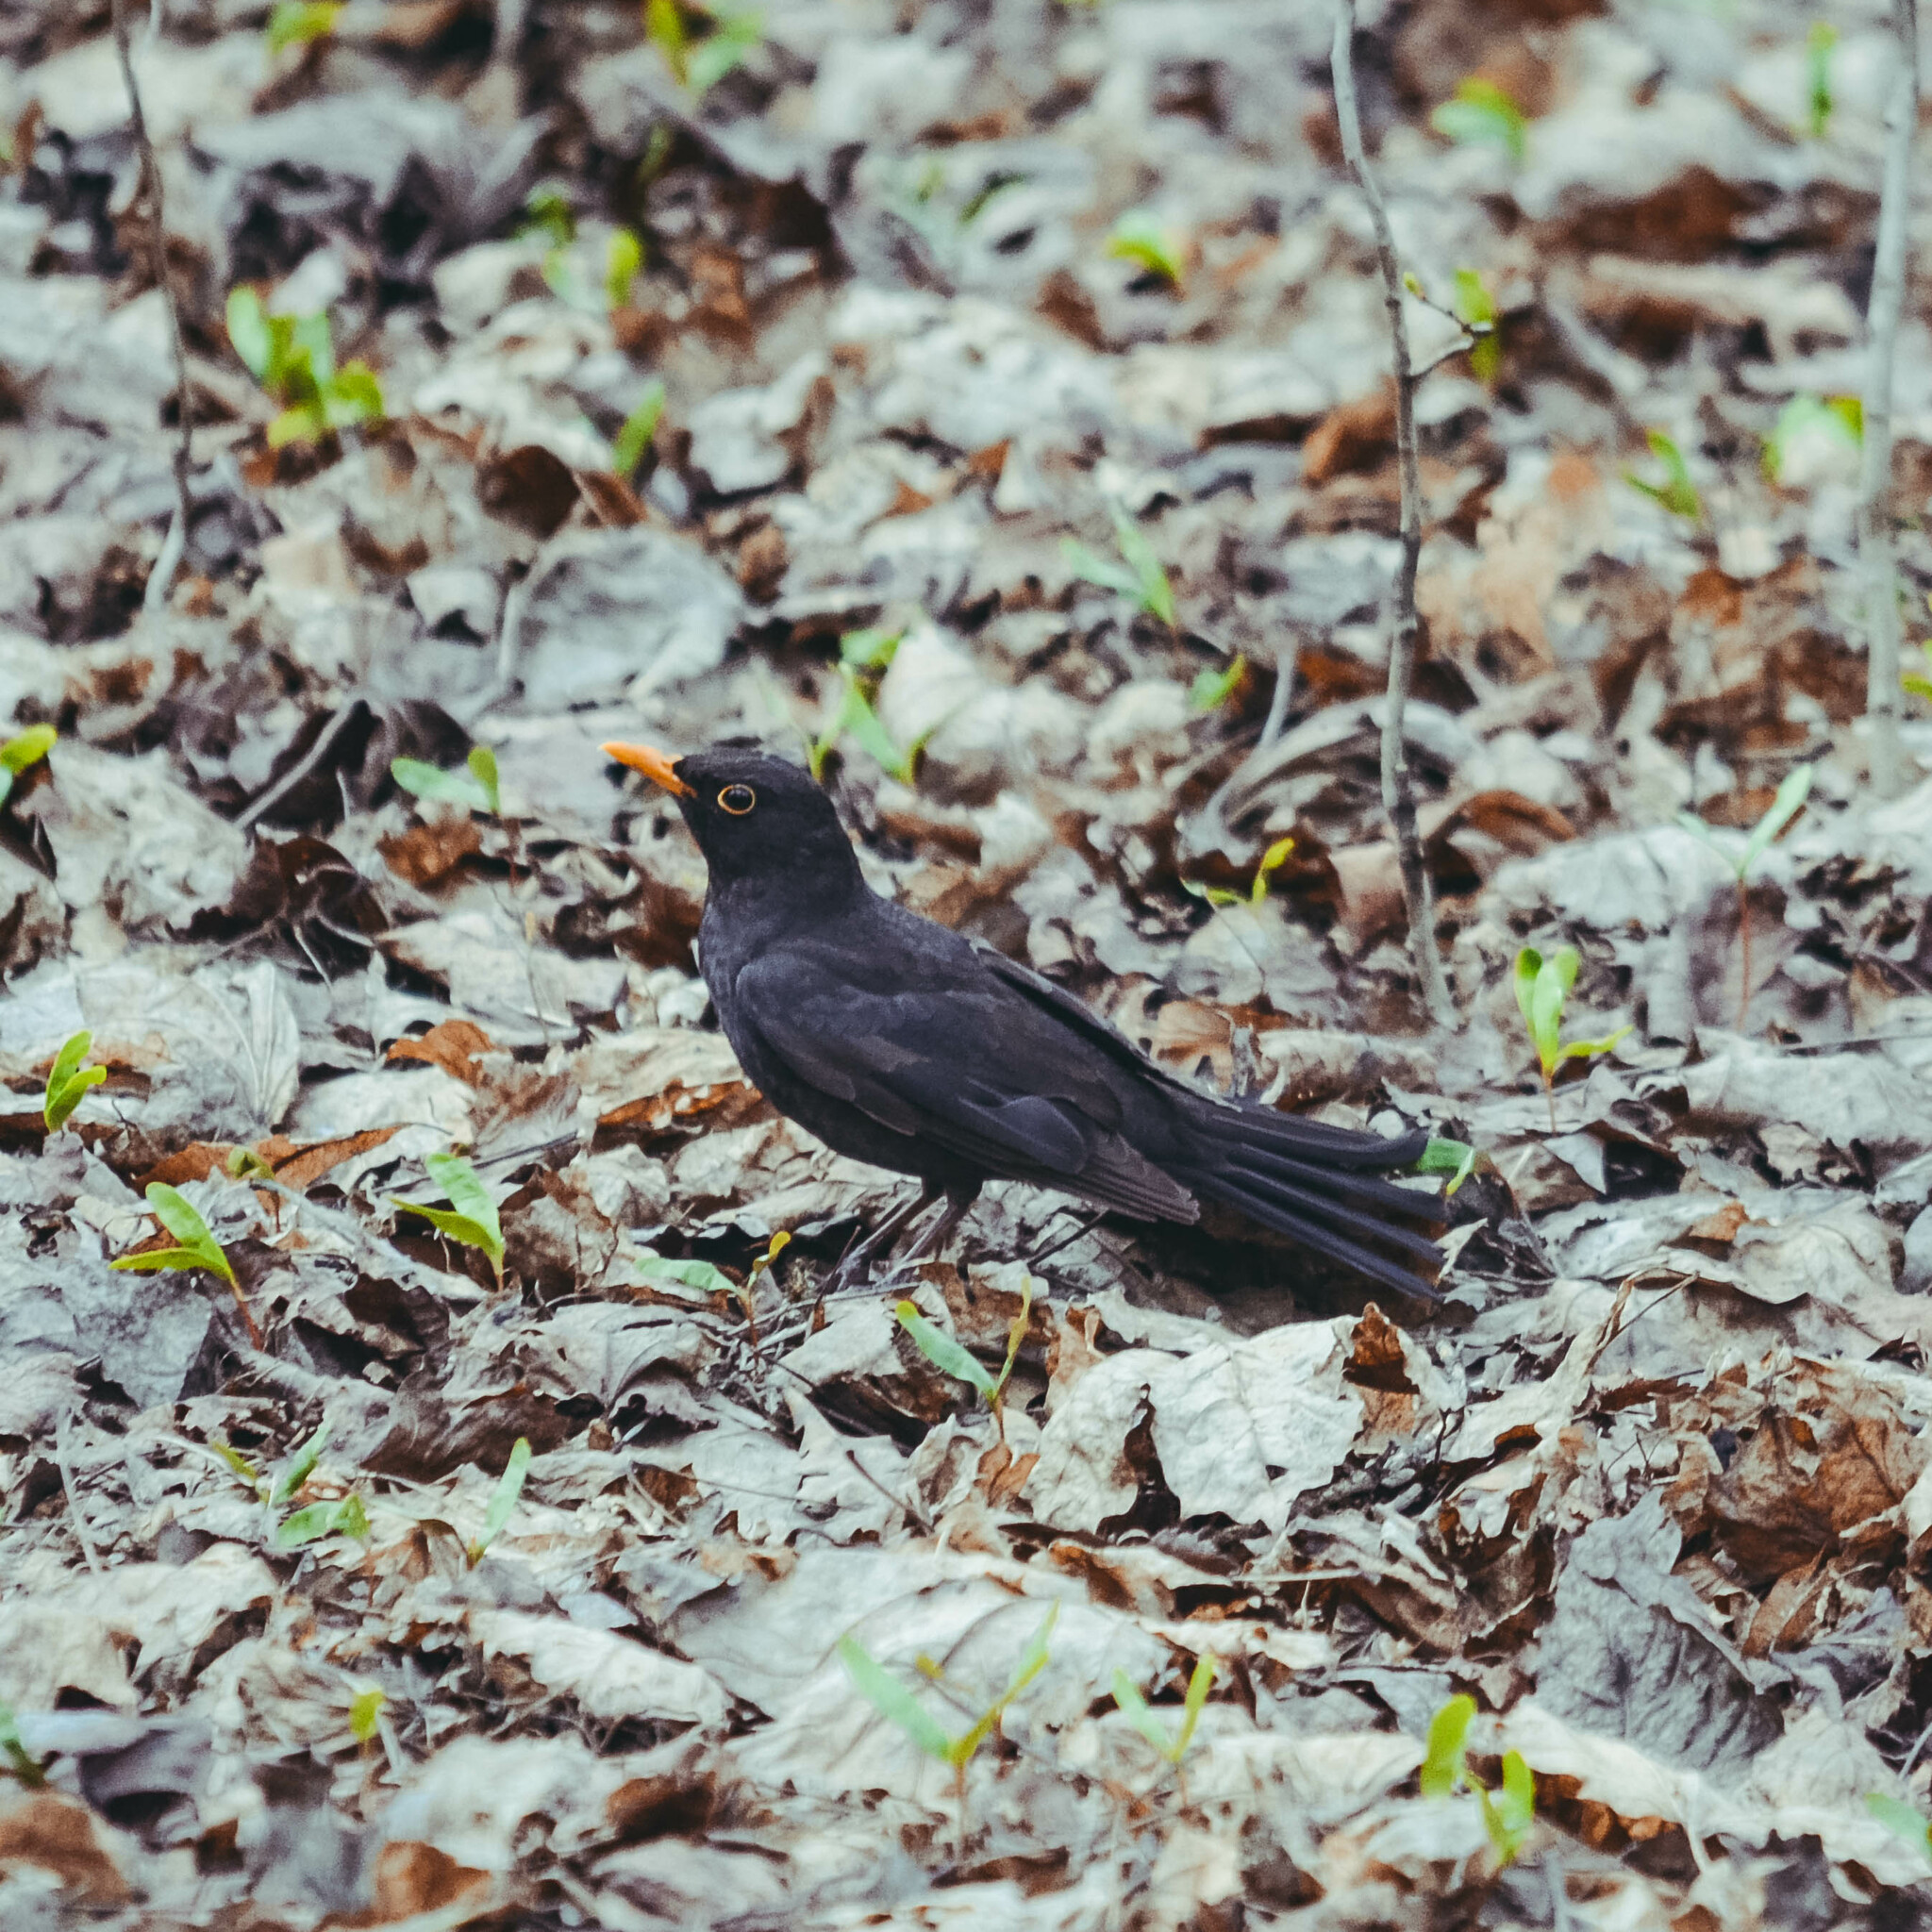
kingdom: Animalia
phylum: Chordata
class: Aves
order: Passeriformes
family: Turdidae
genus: Turdus
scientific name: Turdus merula
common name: Common blackbird
